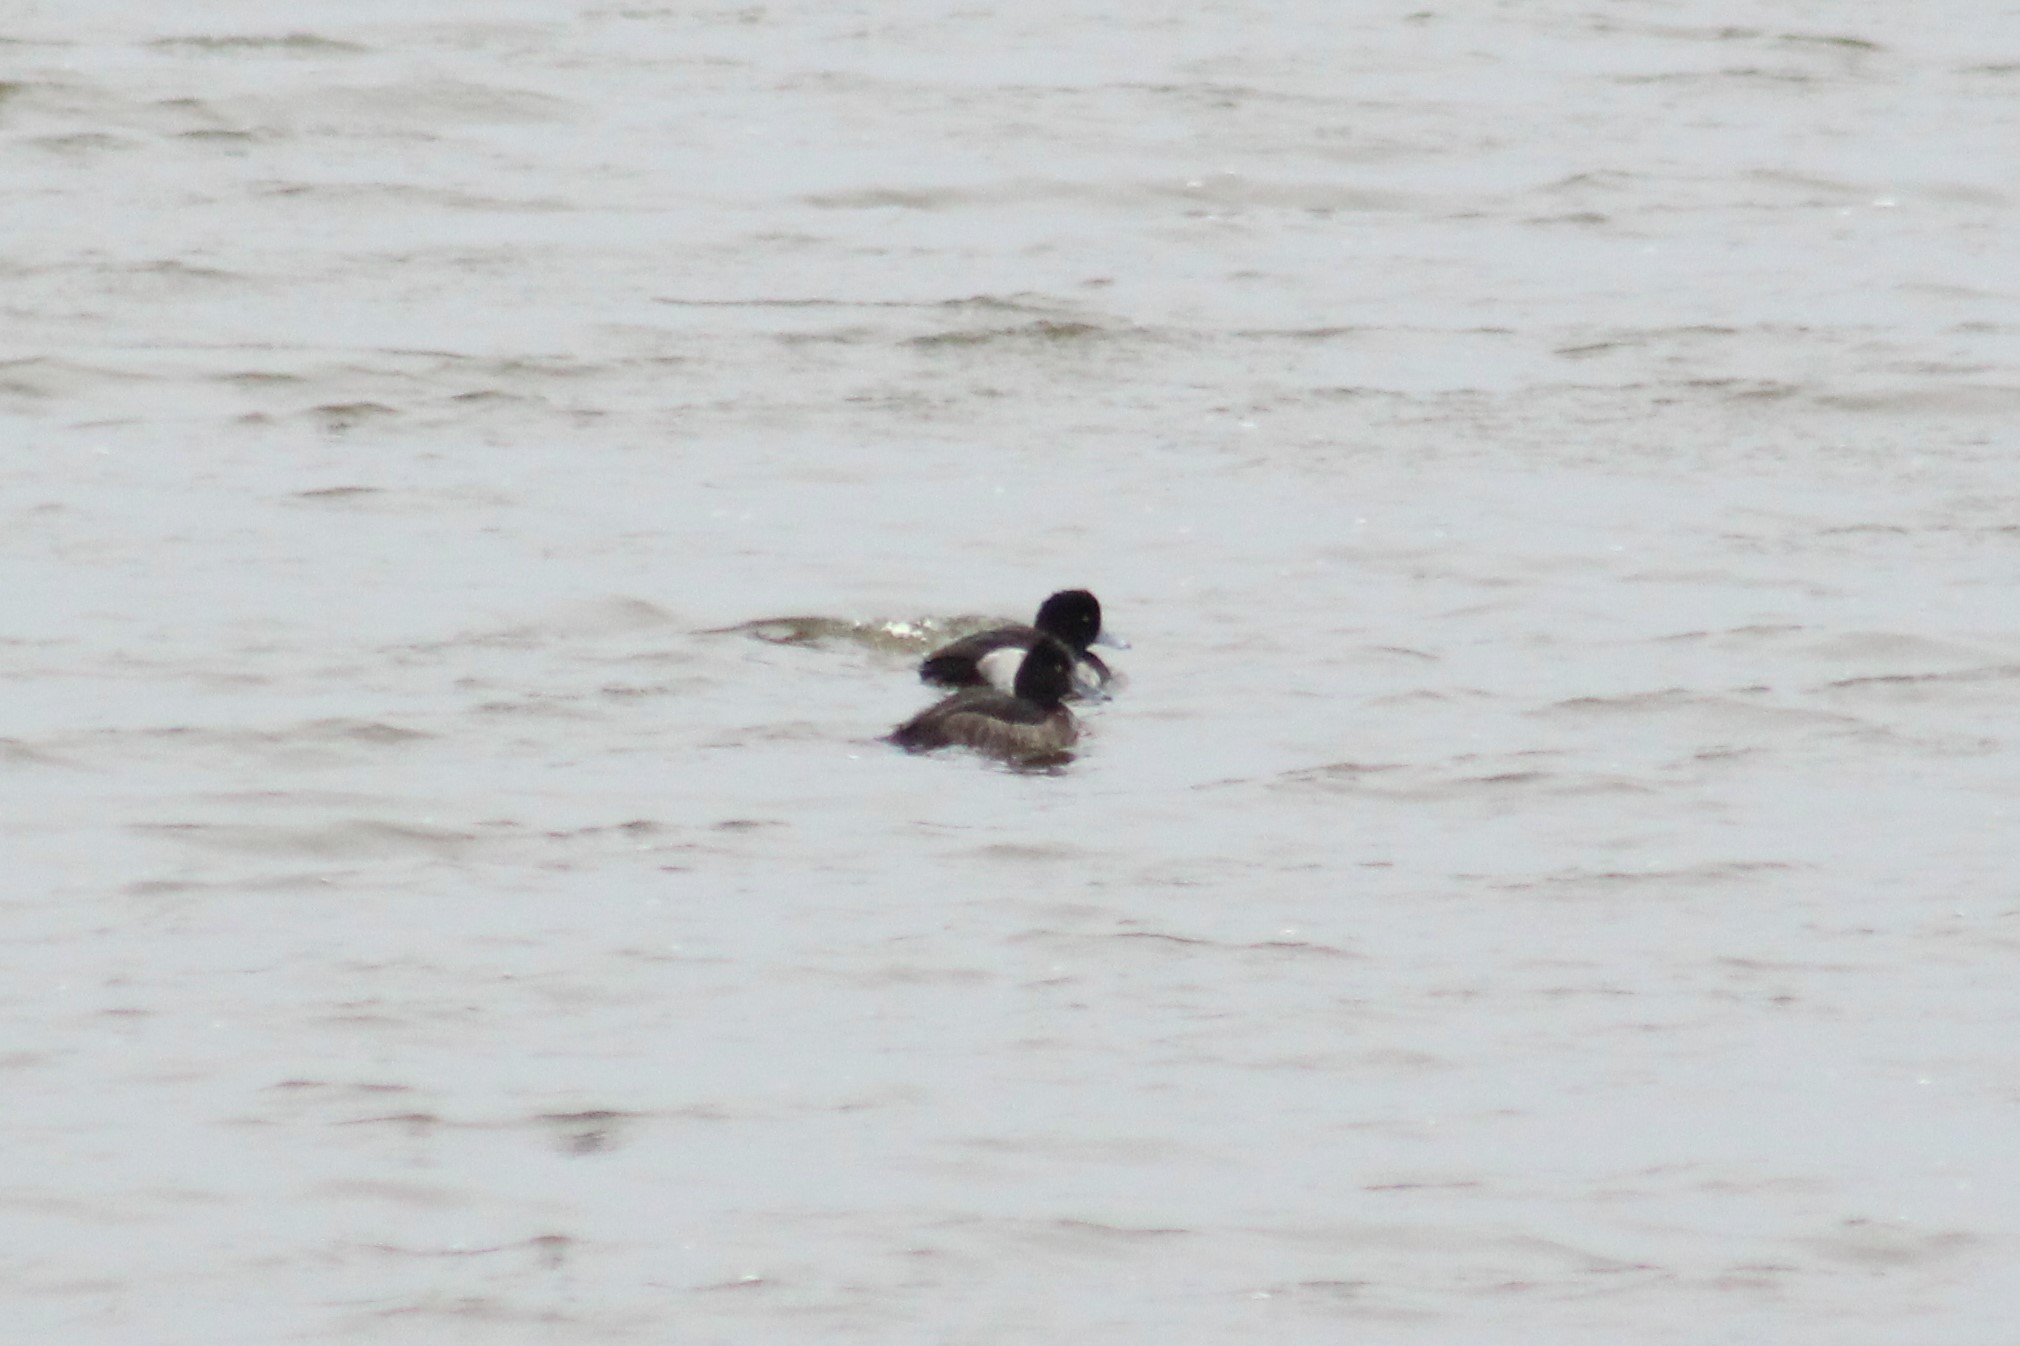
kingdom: Animalia
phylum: Chordata
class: Aves
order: Anseriformes
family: Anatidae
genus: Aythya
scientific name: Aythya fuligula
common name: Tufted duck
